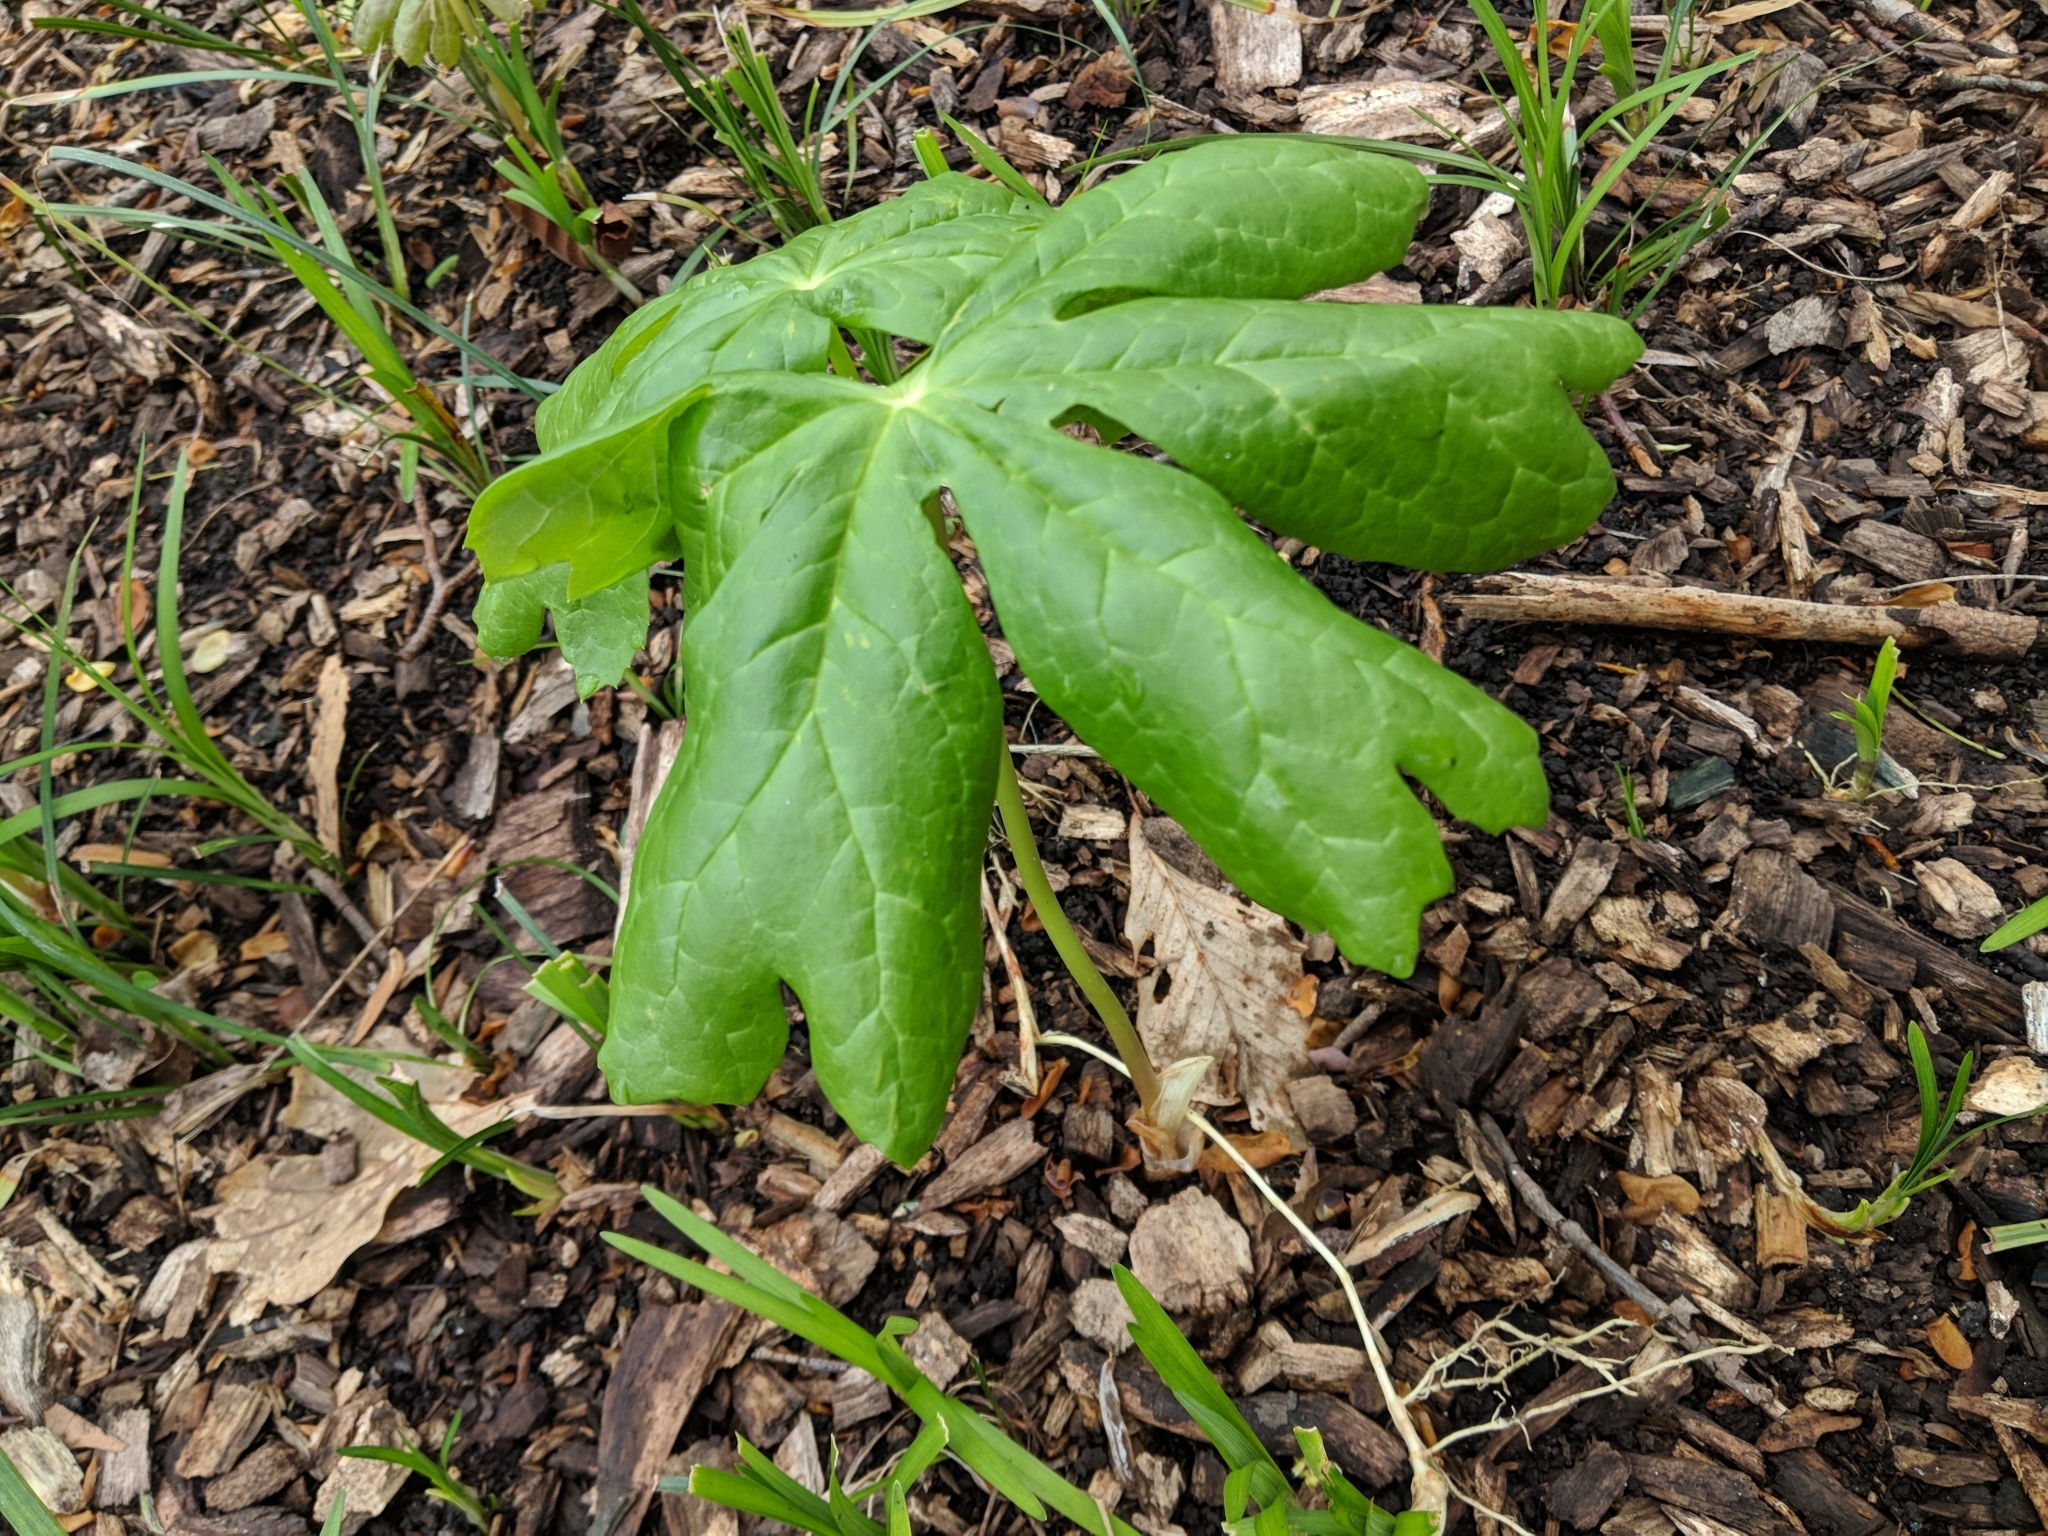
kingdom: Plantae
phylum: Tracheophyta
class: Magnoliopsida
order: Ranunculales
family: Berberidaceae
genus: Podophyllum
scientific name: Podophyllum peltatum
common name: Wild mandrake
